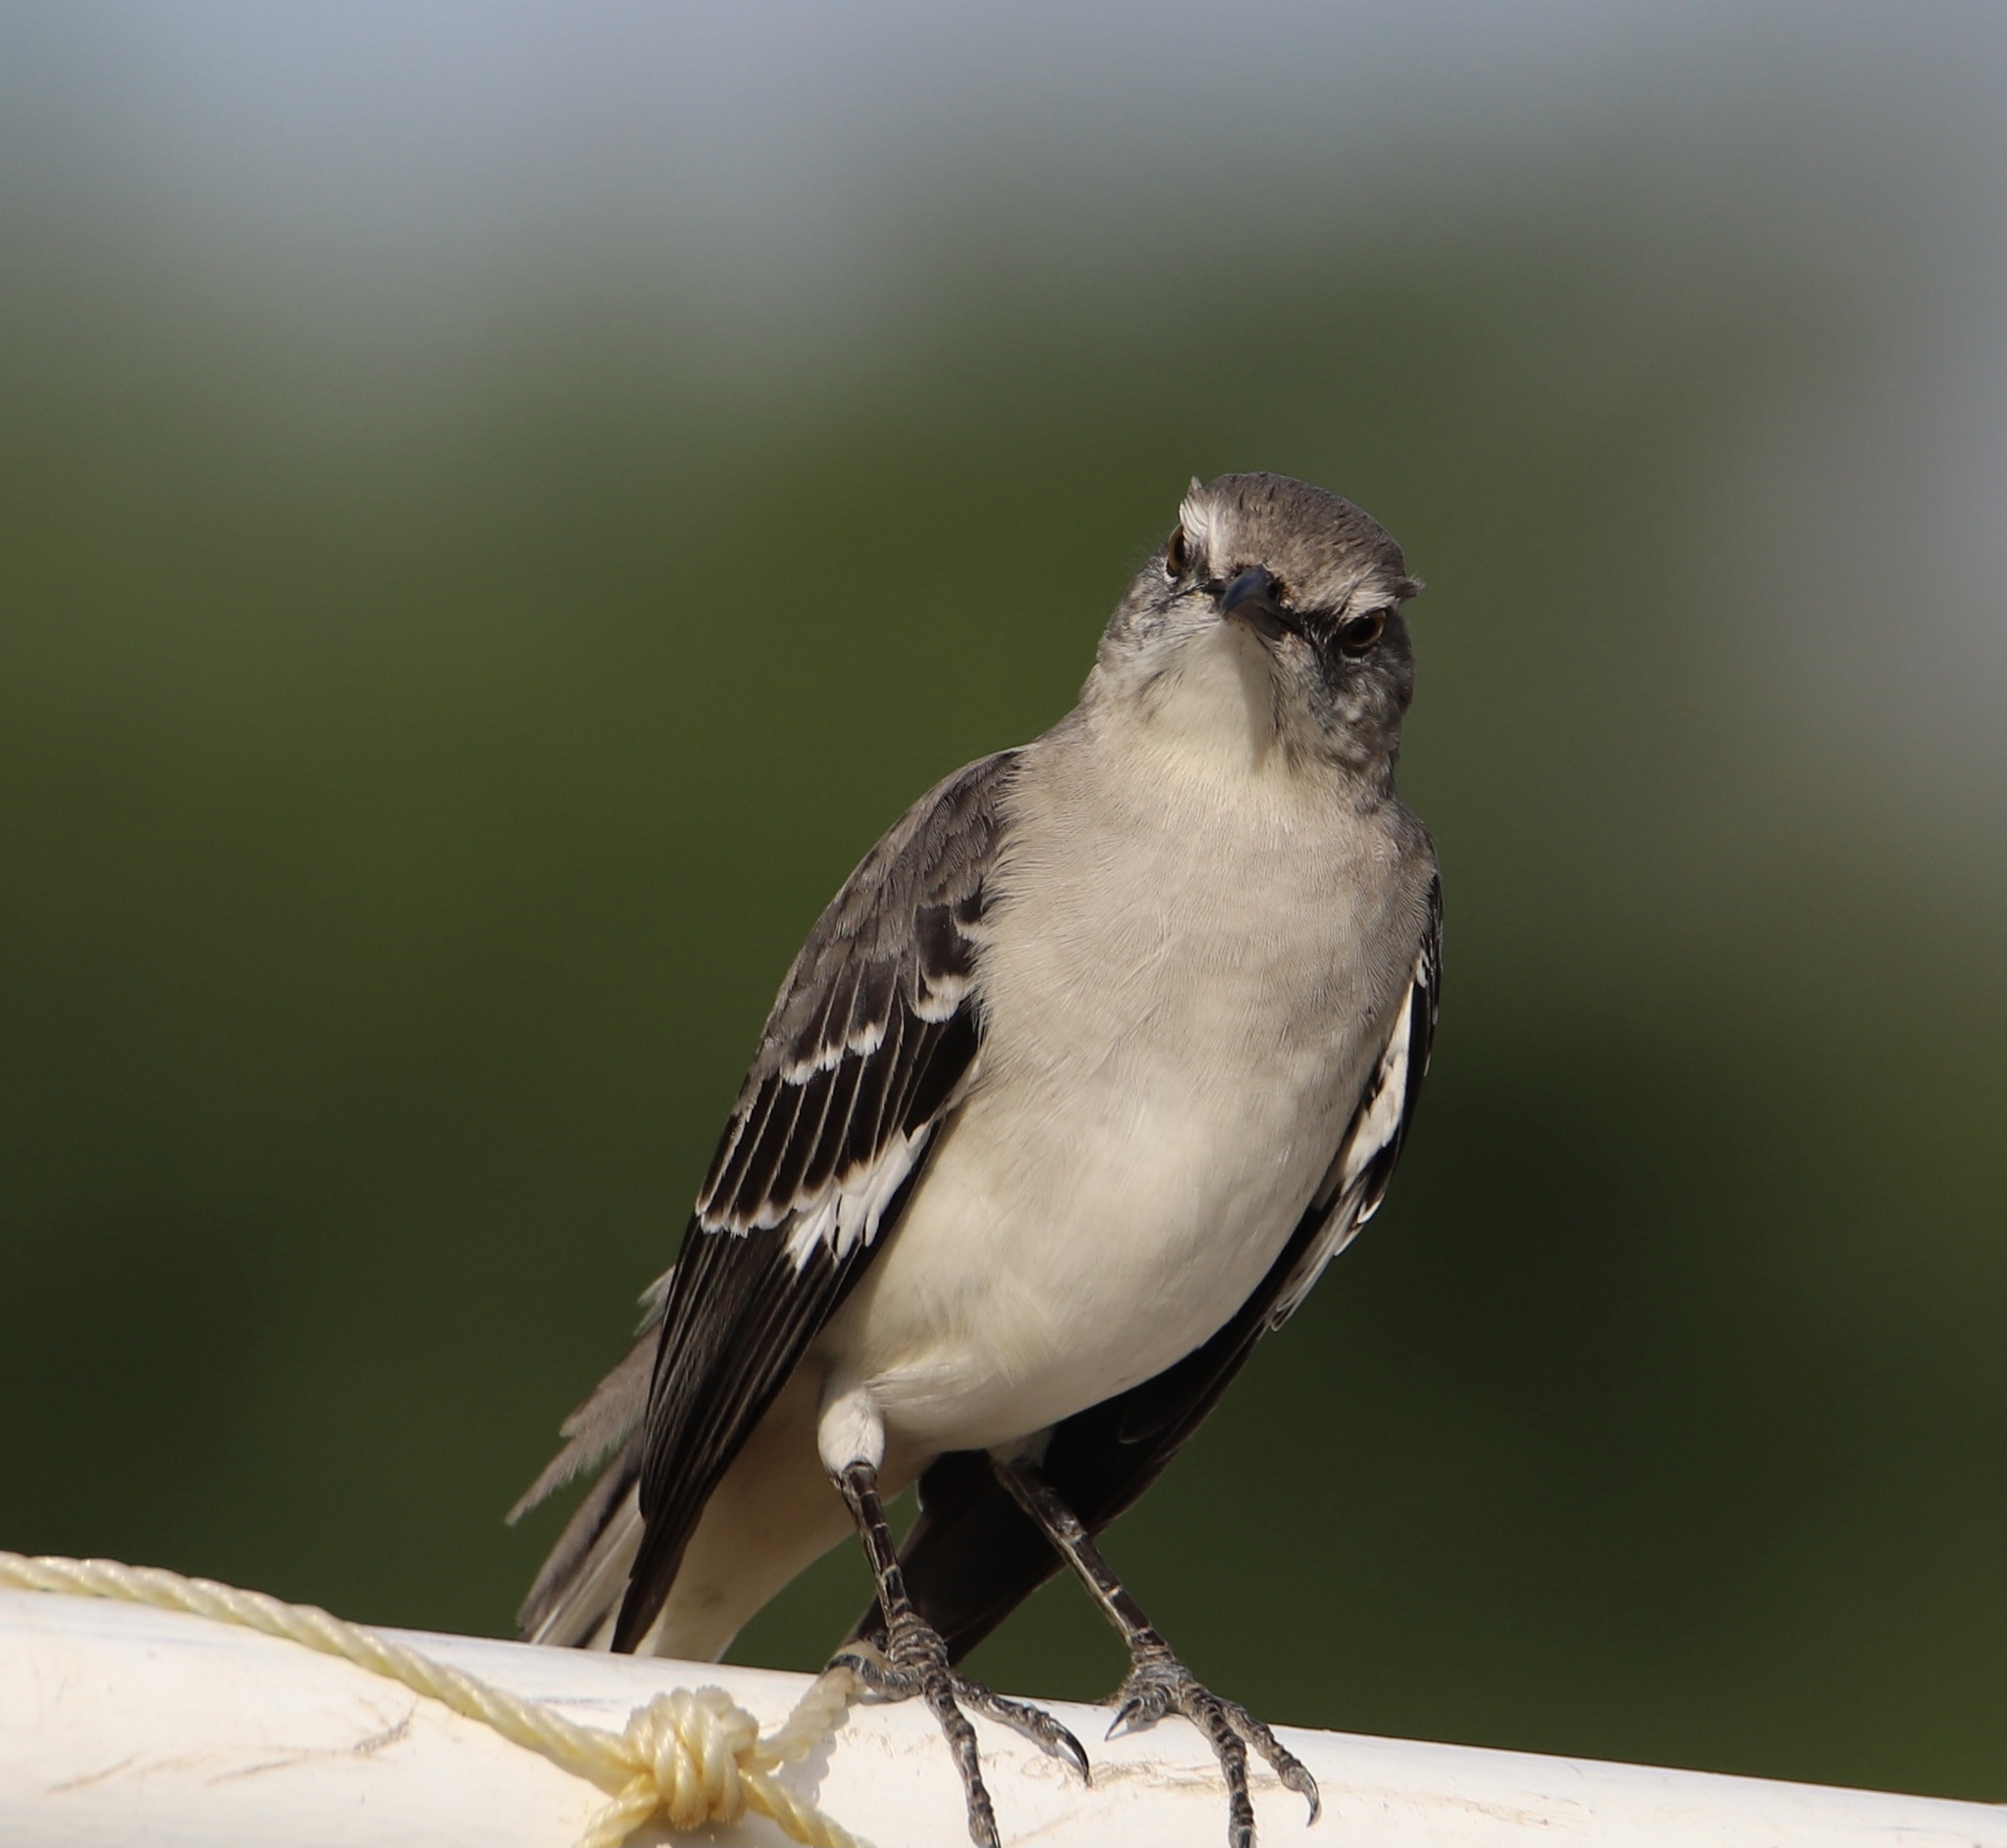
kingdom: Animalia
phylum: Chordata
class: Aves
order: Passeriformes
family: Mimidae
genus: Mimus
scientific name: Mimus polyglottos
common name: Northern mockingbird
